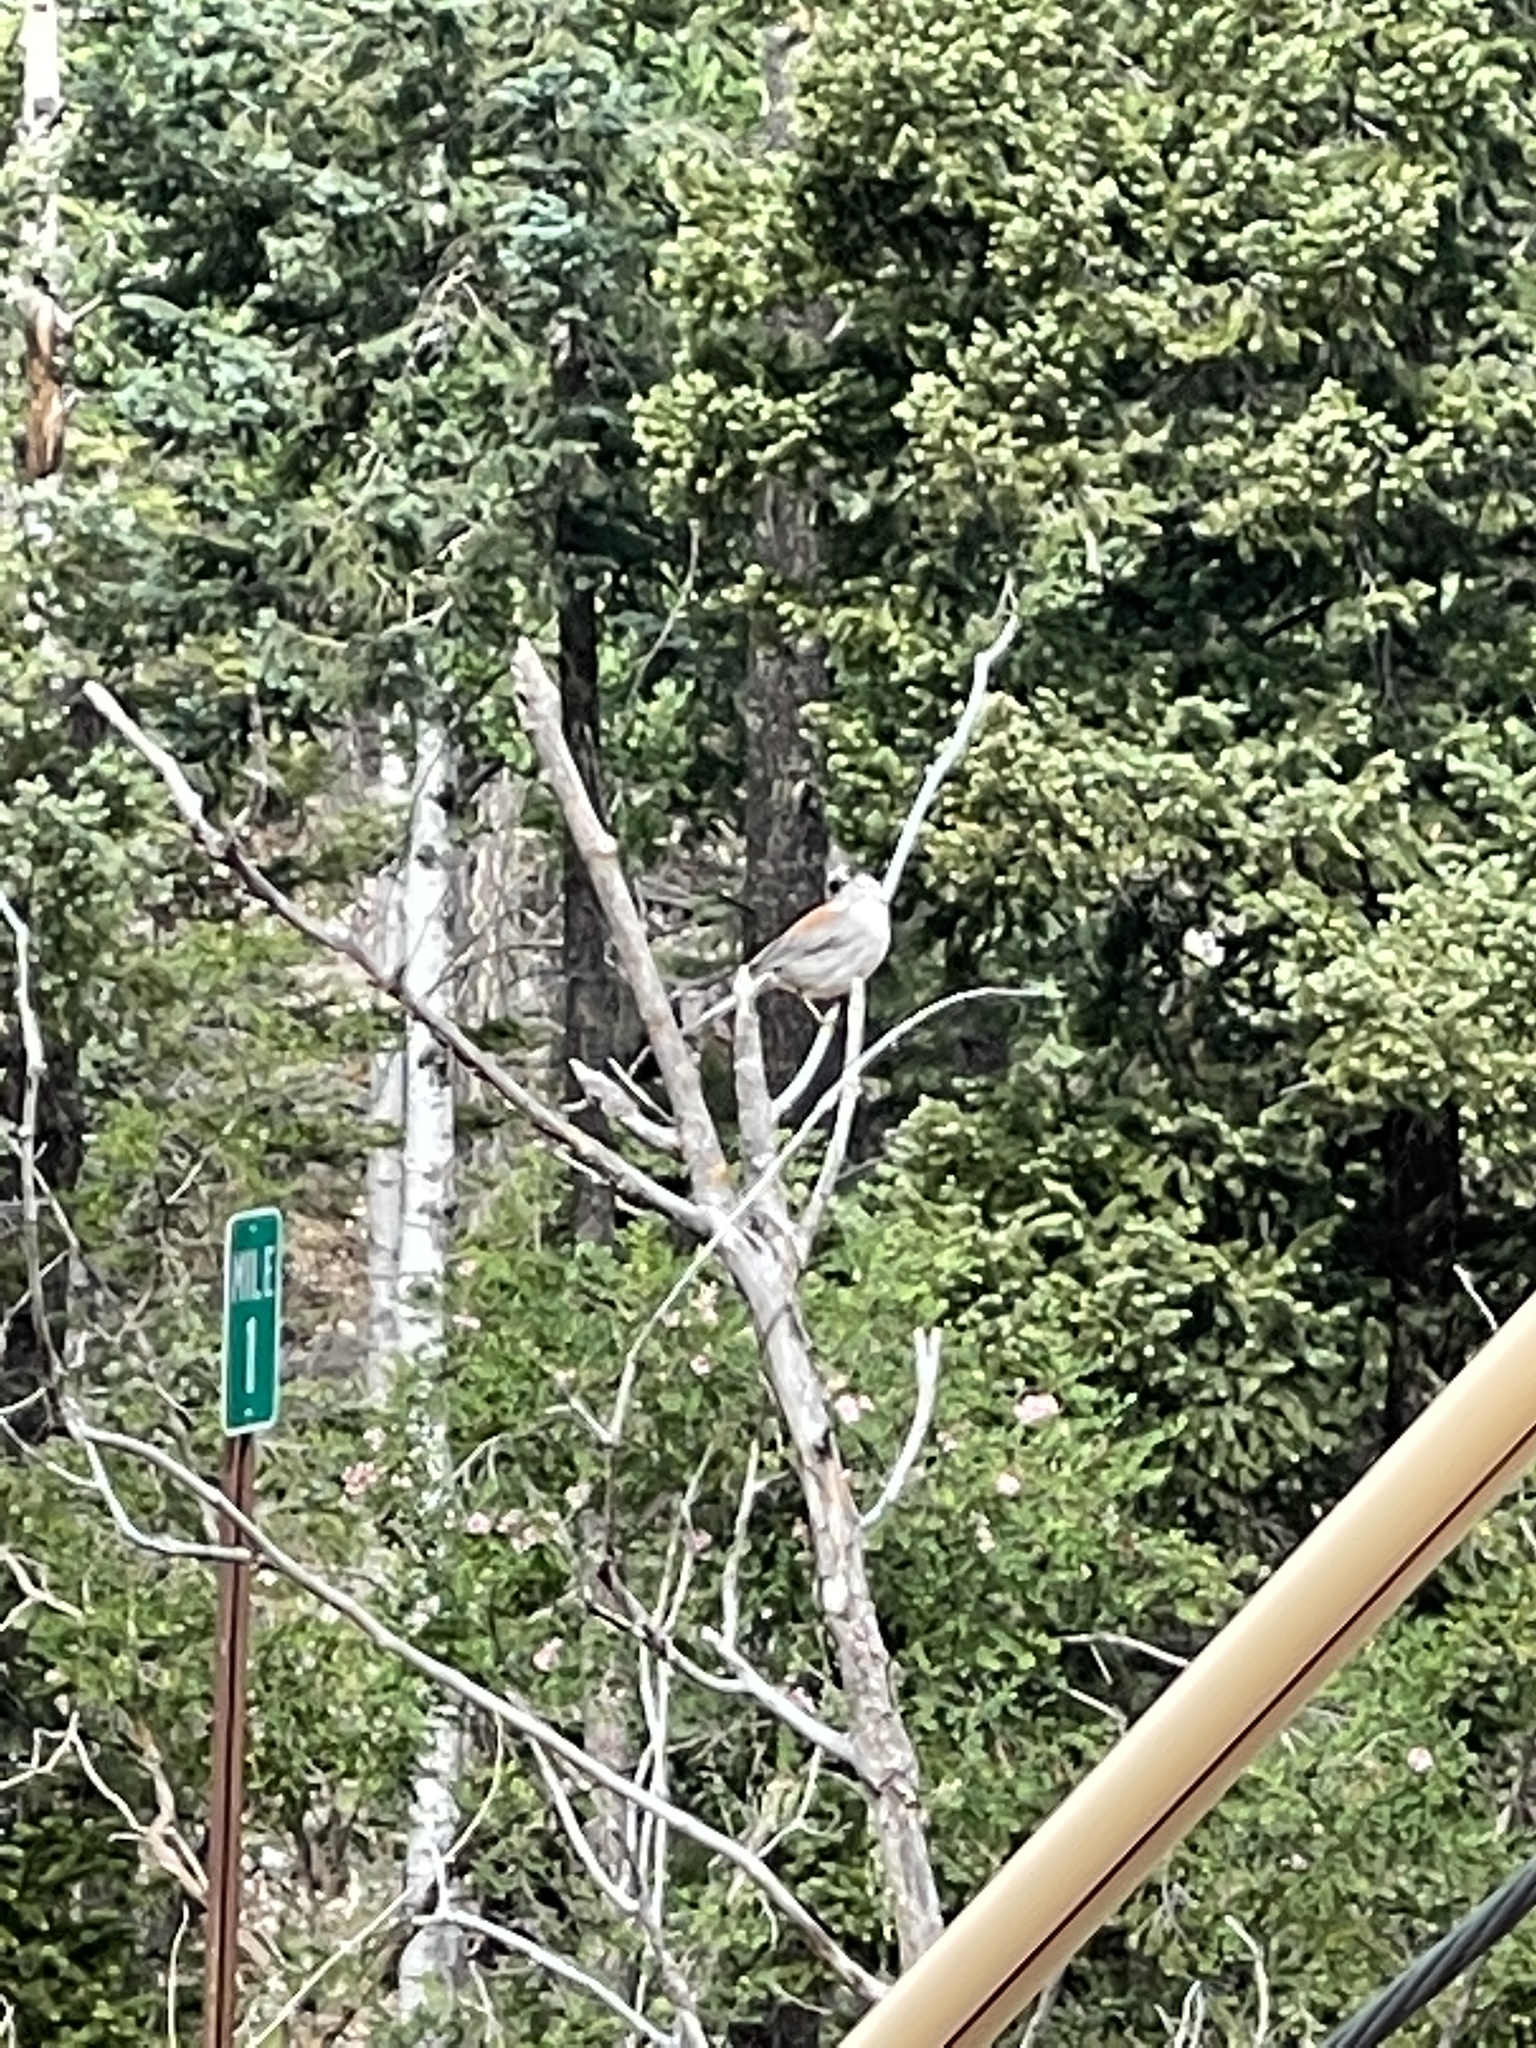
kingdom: Animalia
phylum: Chordata
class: Aves
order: Passeriformes
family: Passerellidae
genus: Junco
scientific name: Junco hyemalis
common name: Dark-eyed junco
